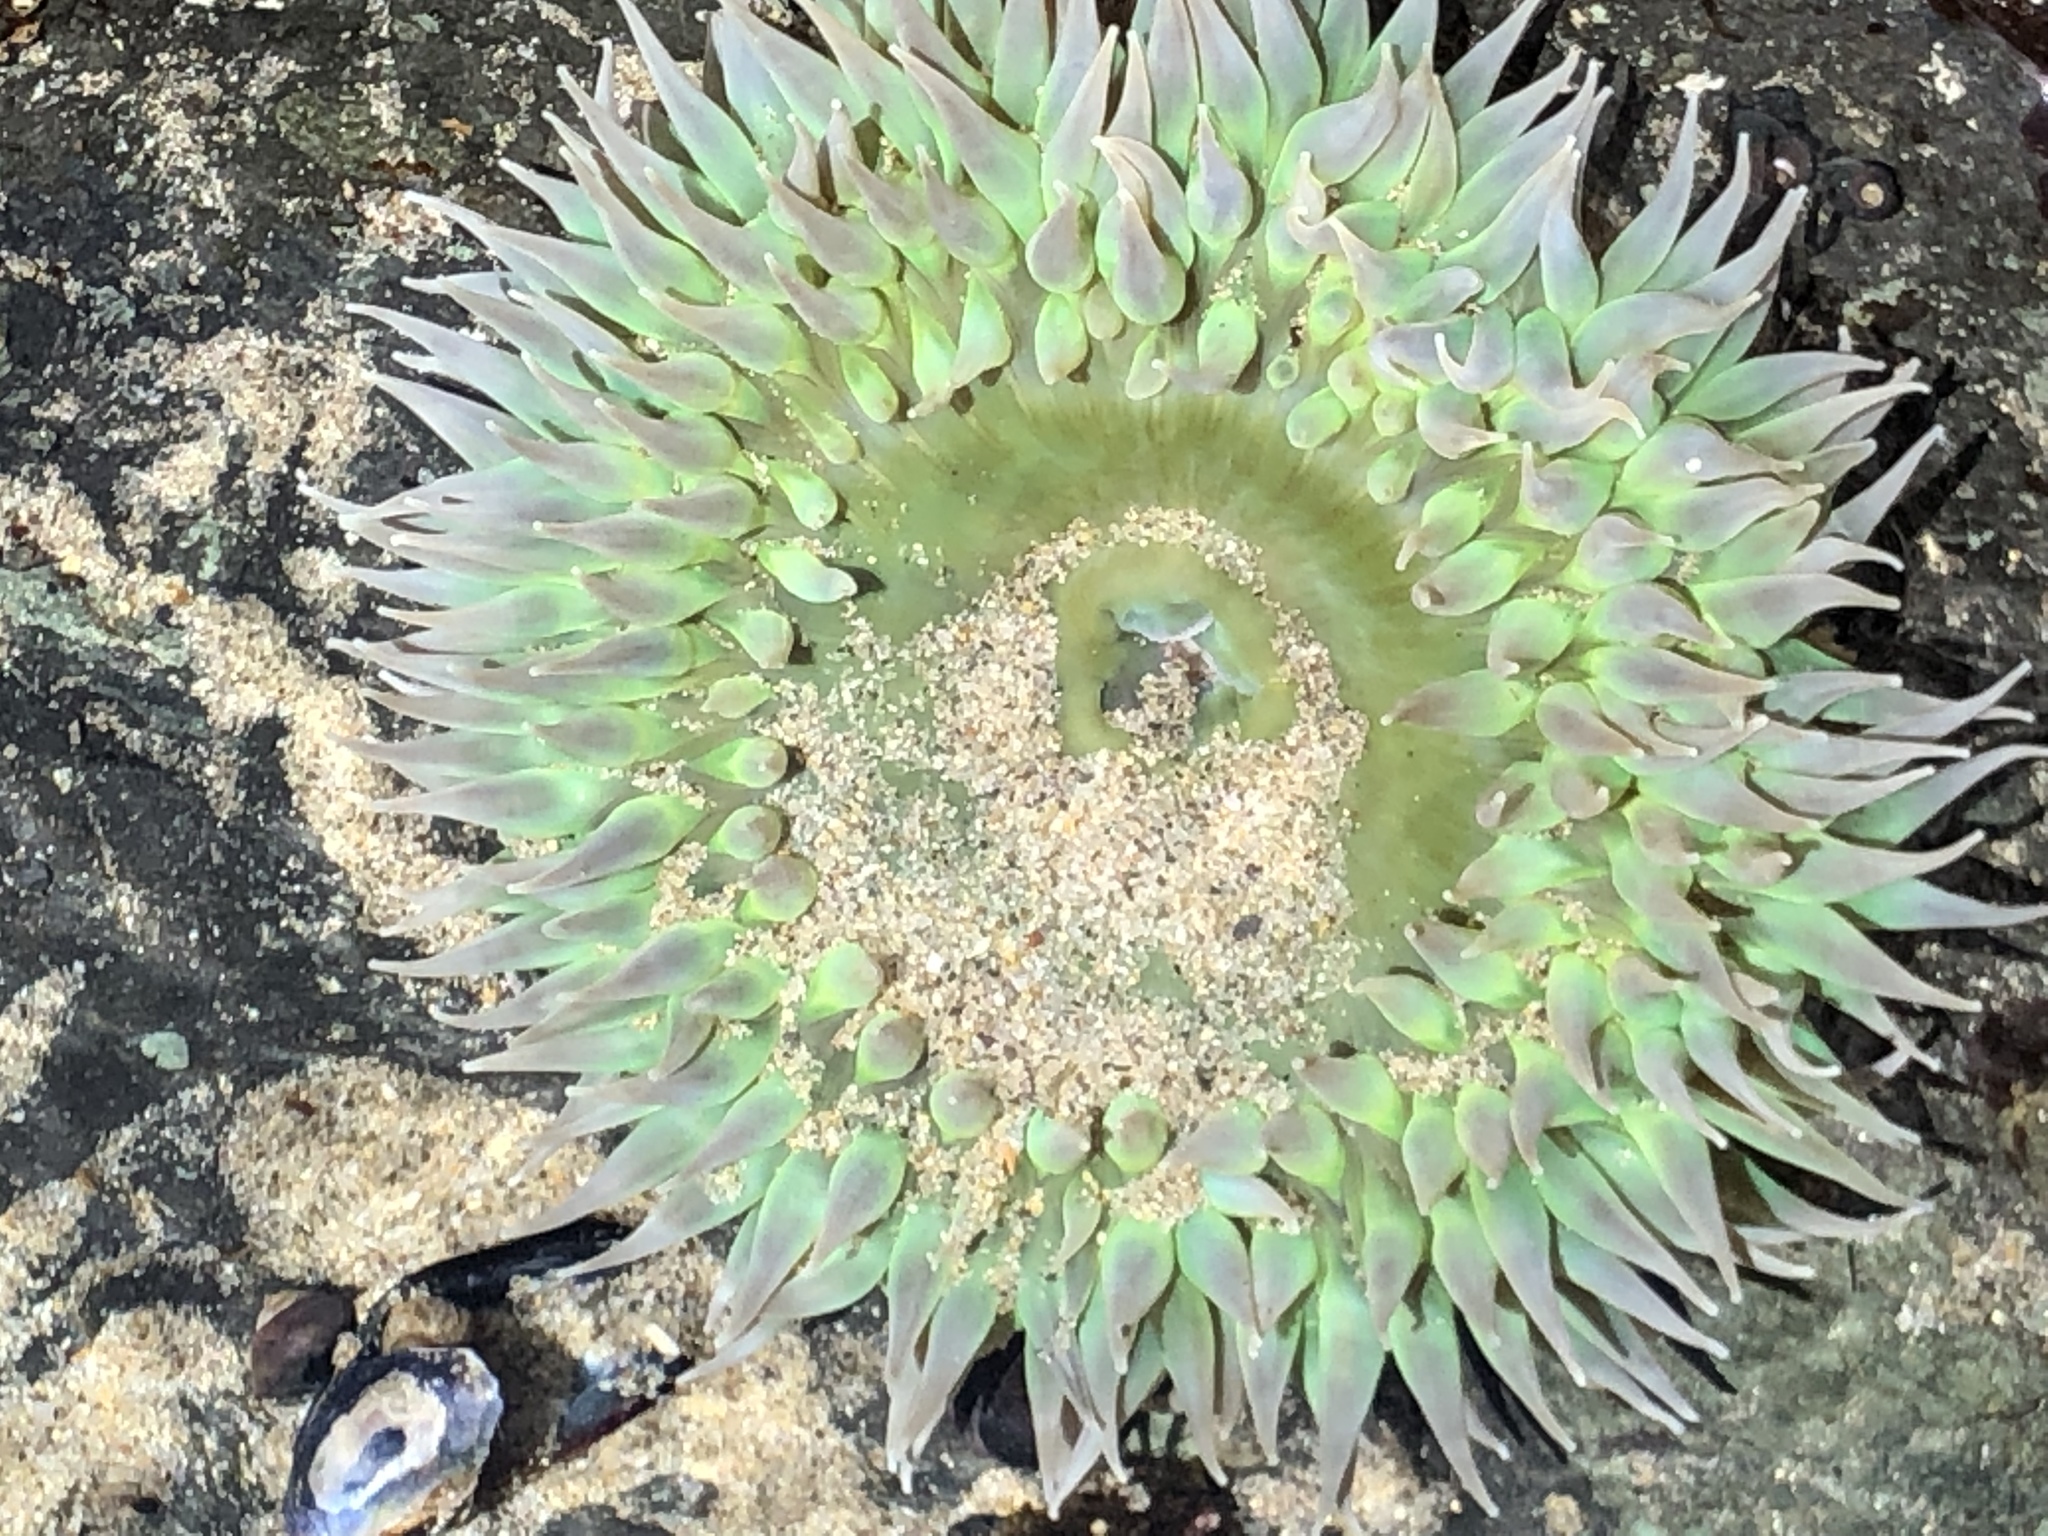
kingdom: Animalia
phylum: Cnidaria
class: Anthozoa
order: Actiniaria
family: Actiniidae
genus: Anthopleura
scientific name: Anthopleura xanthogrammica
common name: Giant green anemone
